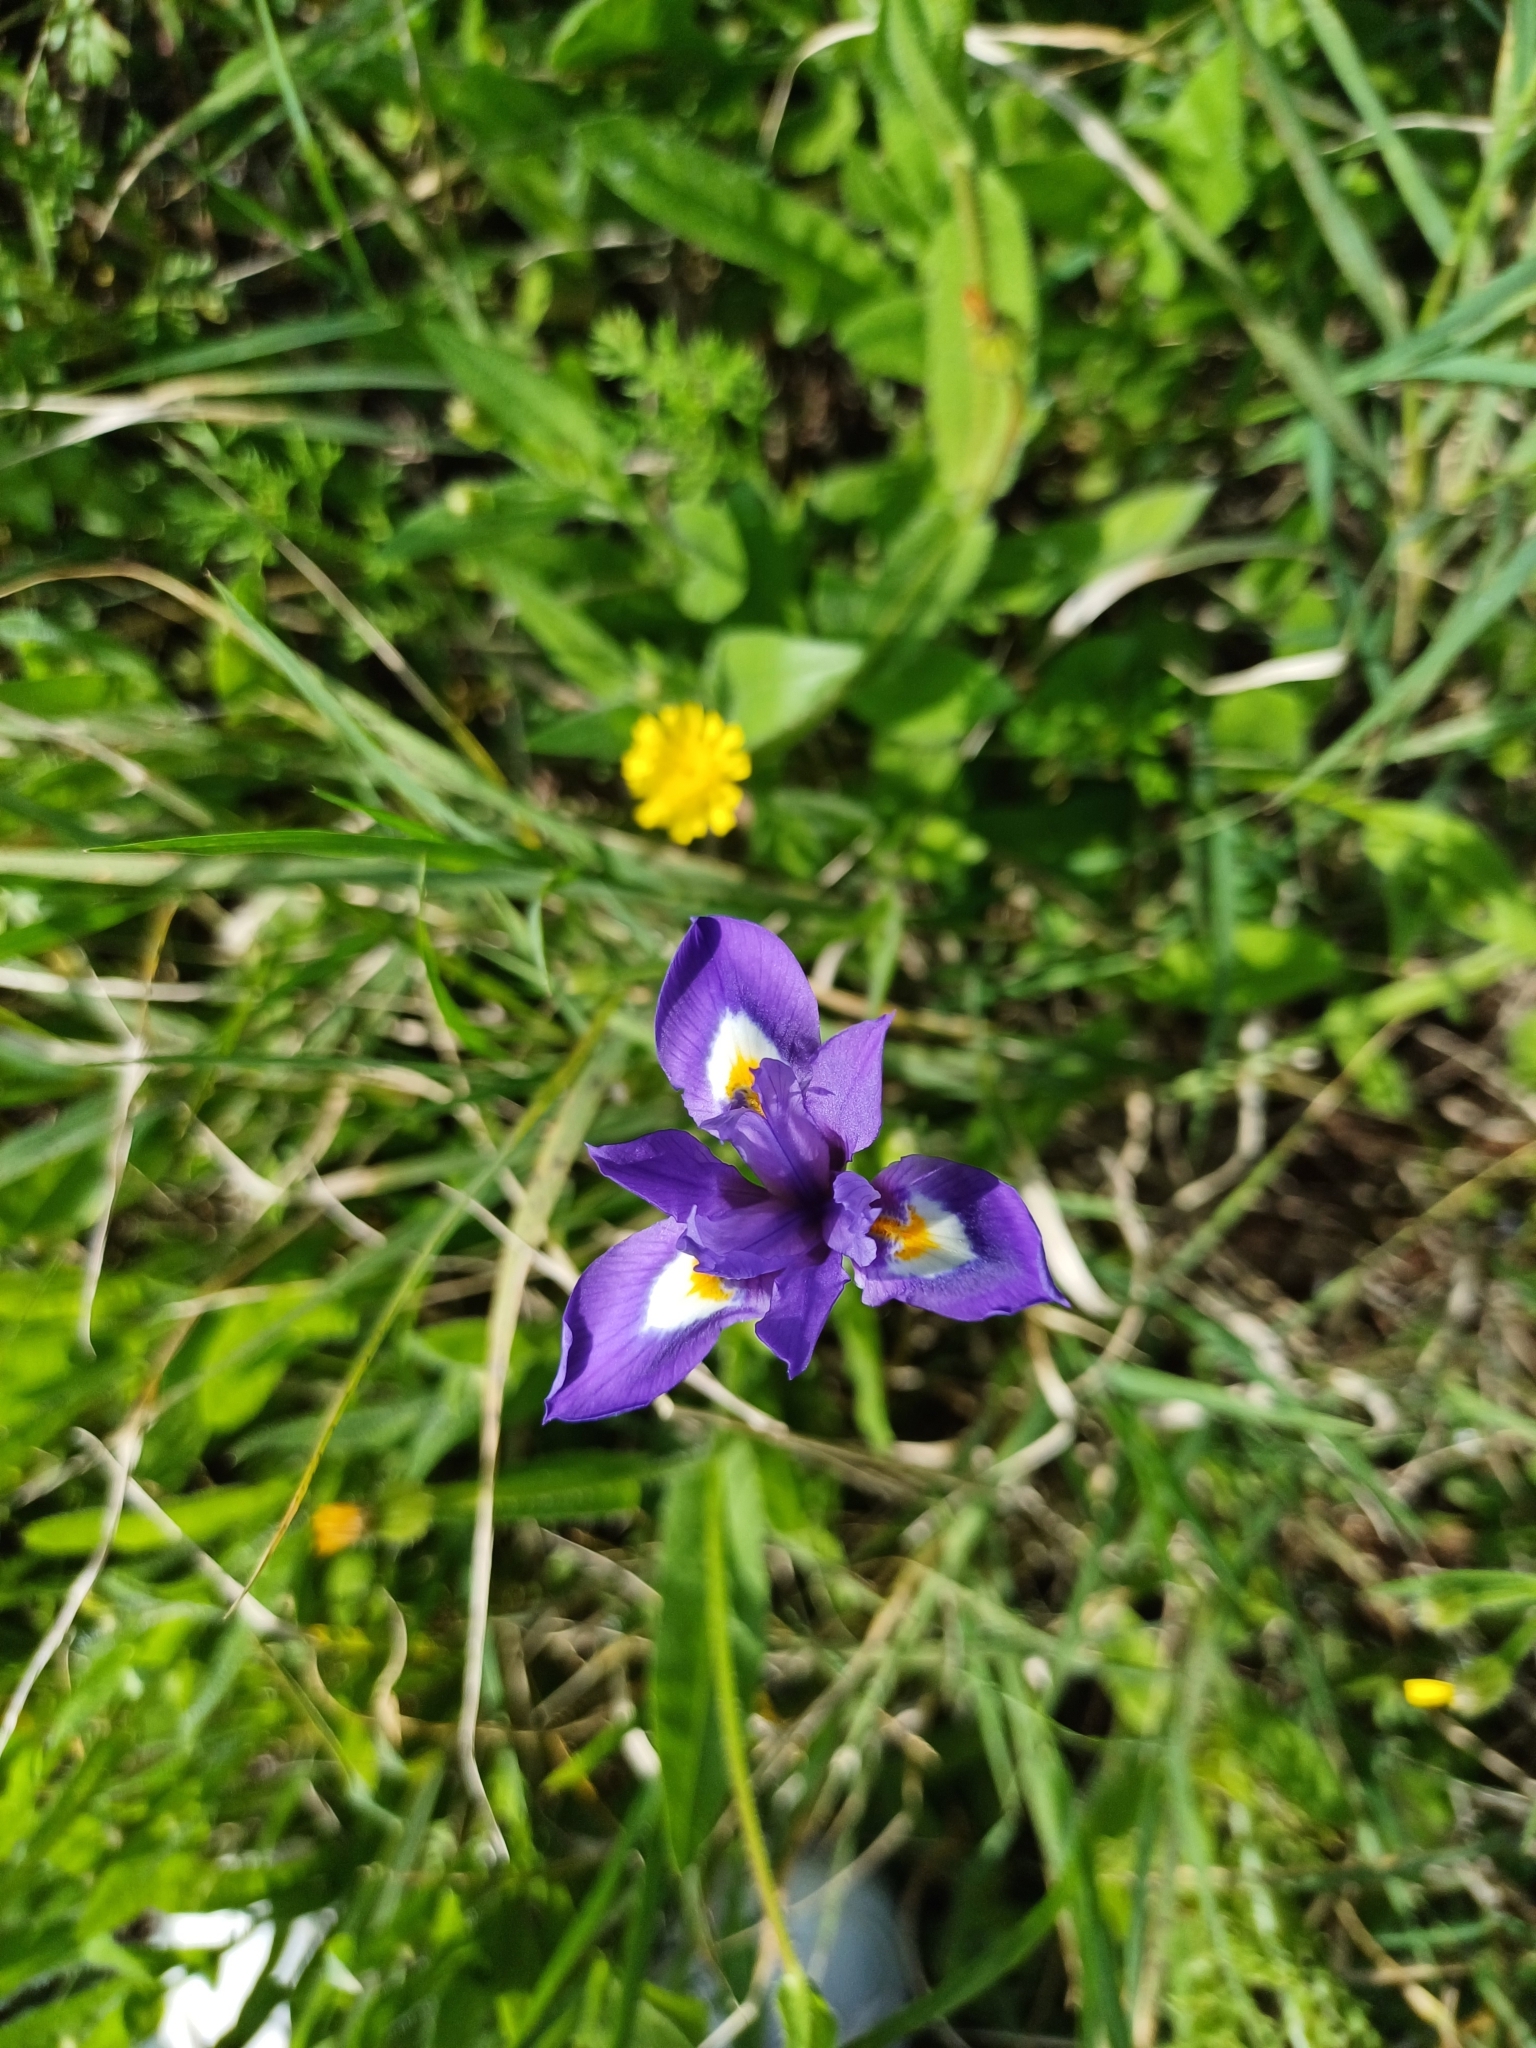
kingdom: Plantae
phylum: Tracheophyta
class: Liliopsida
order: Asparagales
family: Iridaceae
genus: Moraea
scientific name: Moraea sisyrinchium
